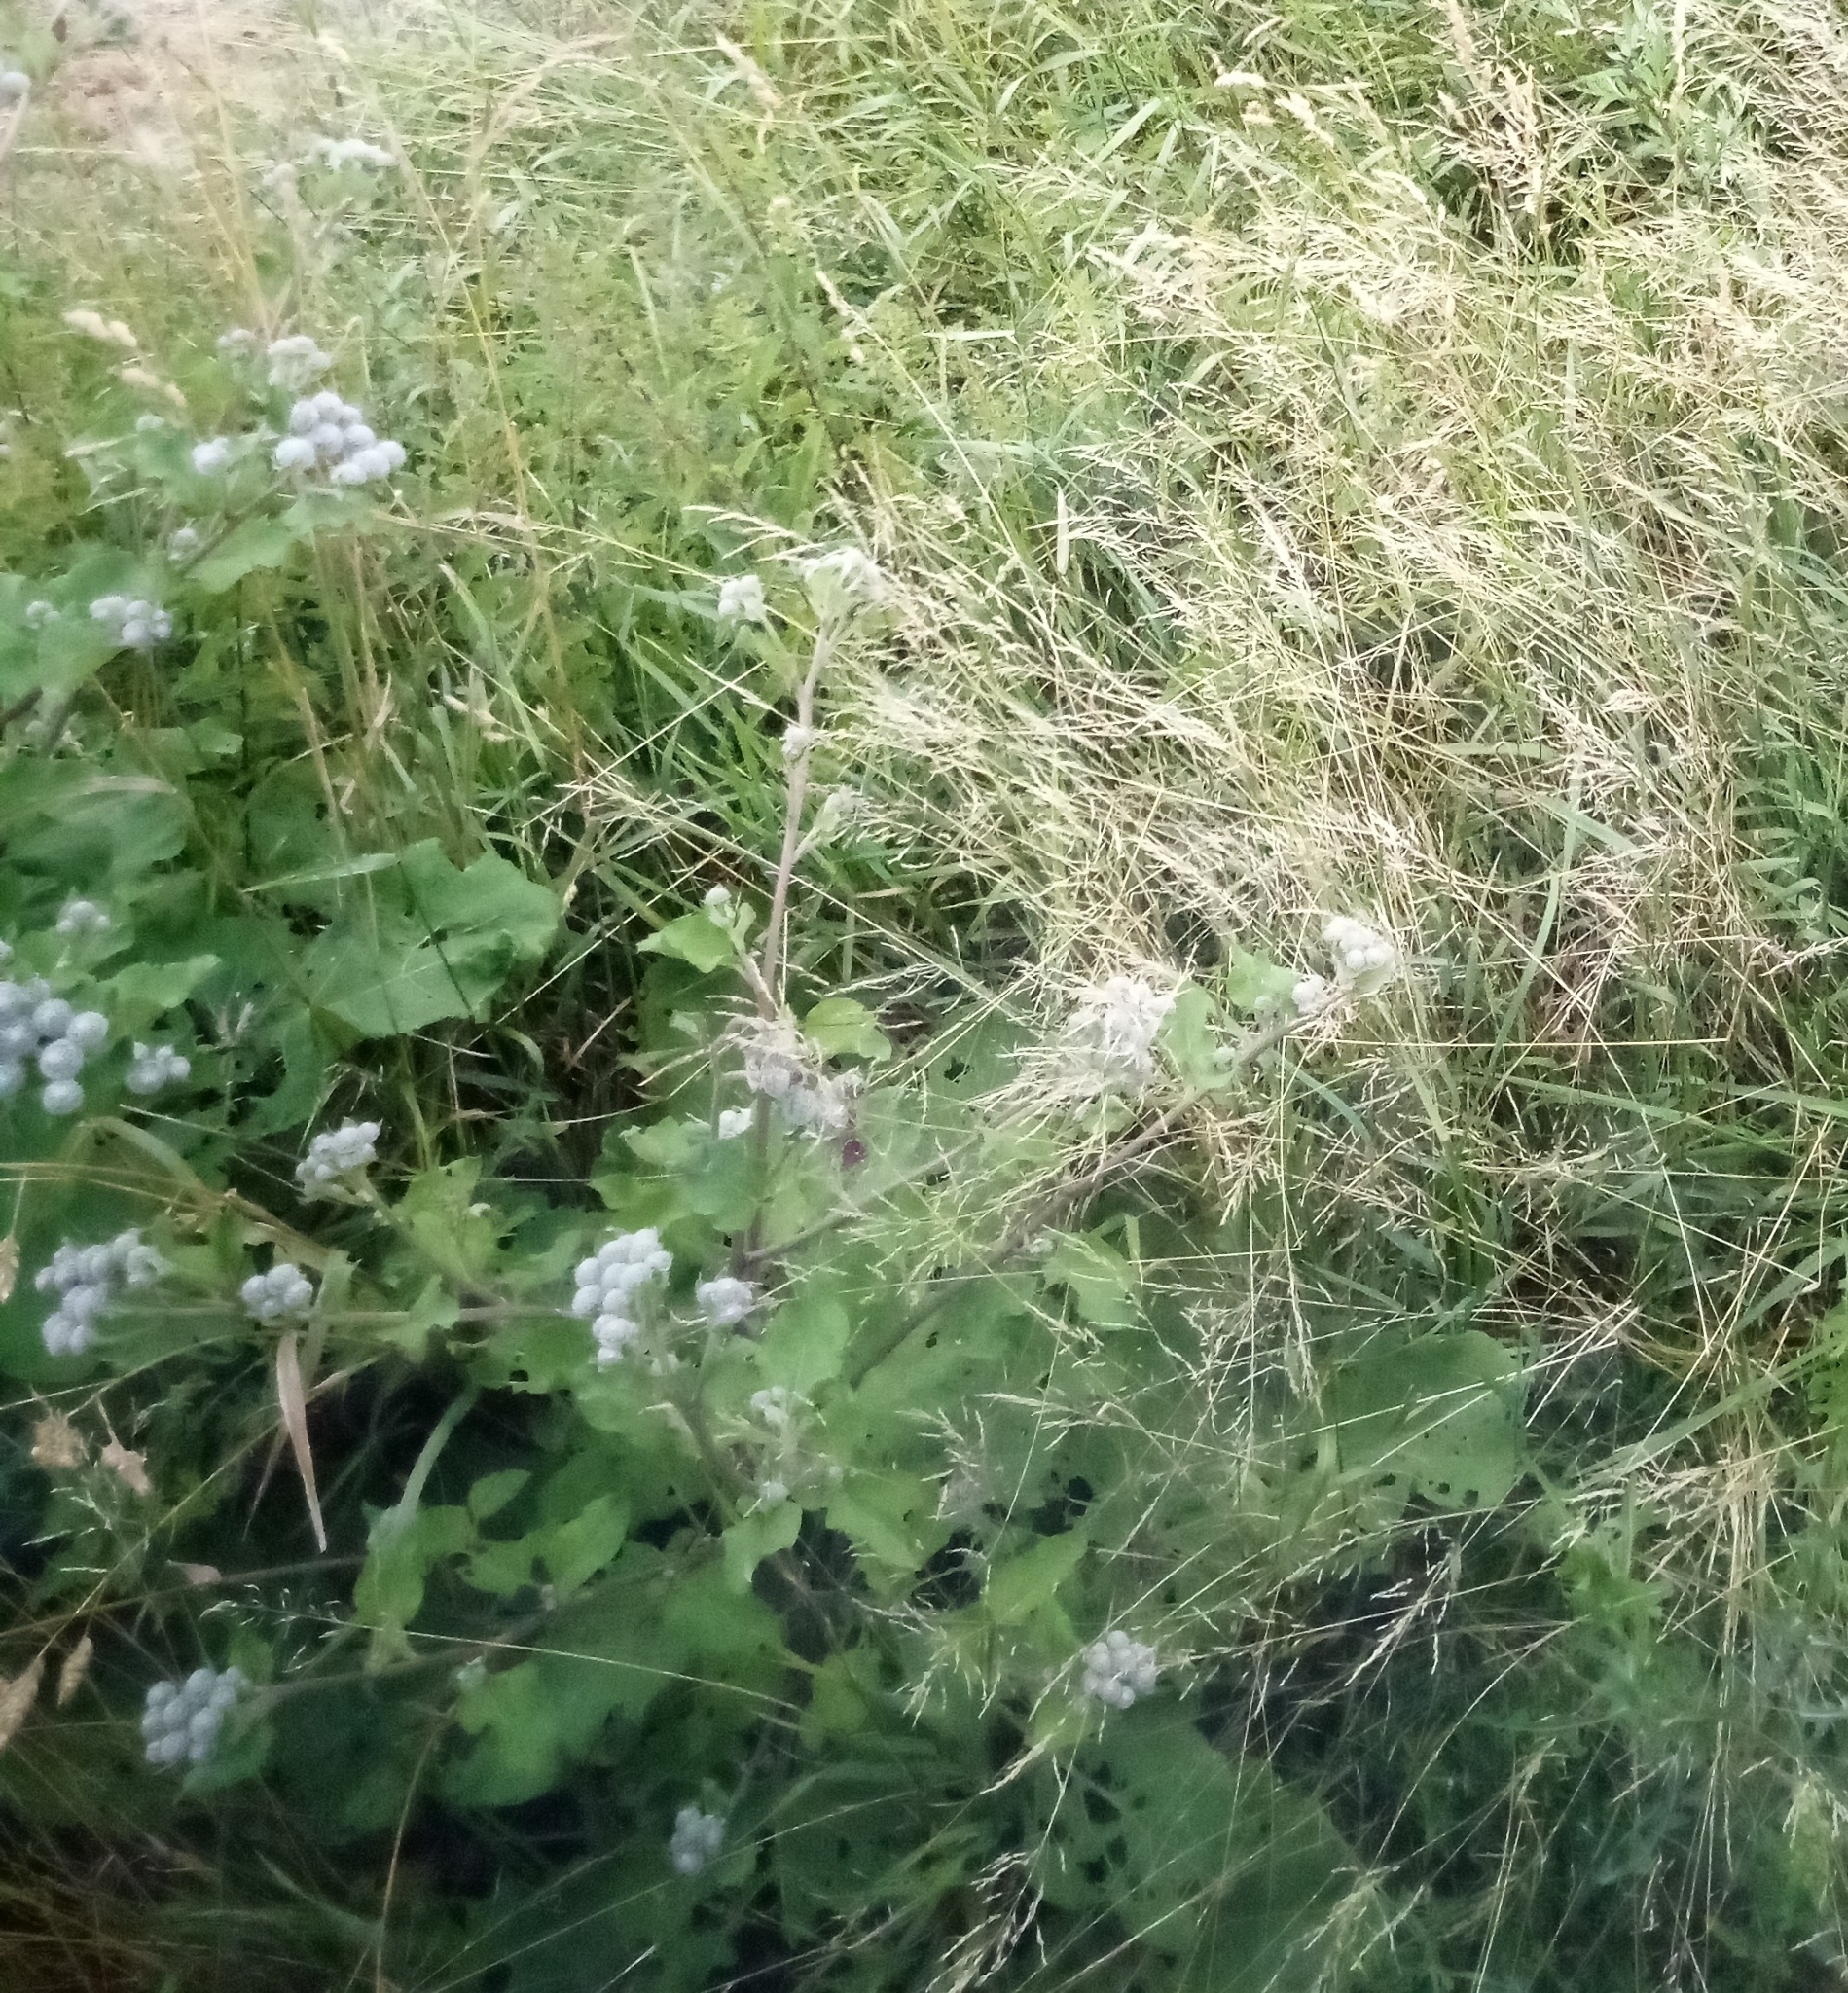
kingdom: Plantae
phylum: Tracheophyta
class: Magnoliopsida
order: Asterales
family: Asteraceae
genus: Arctium
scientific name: Arctium tomentosum
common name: Woolly burdock
